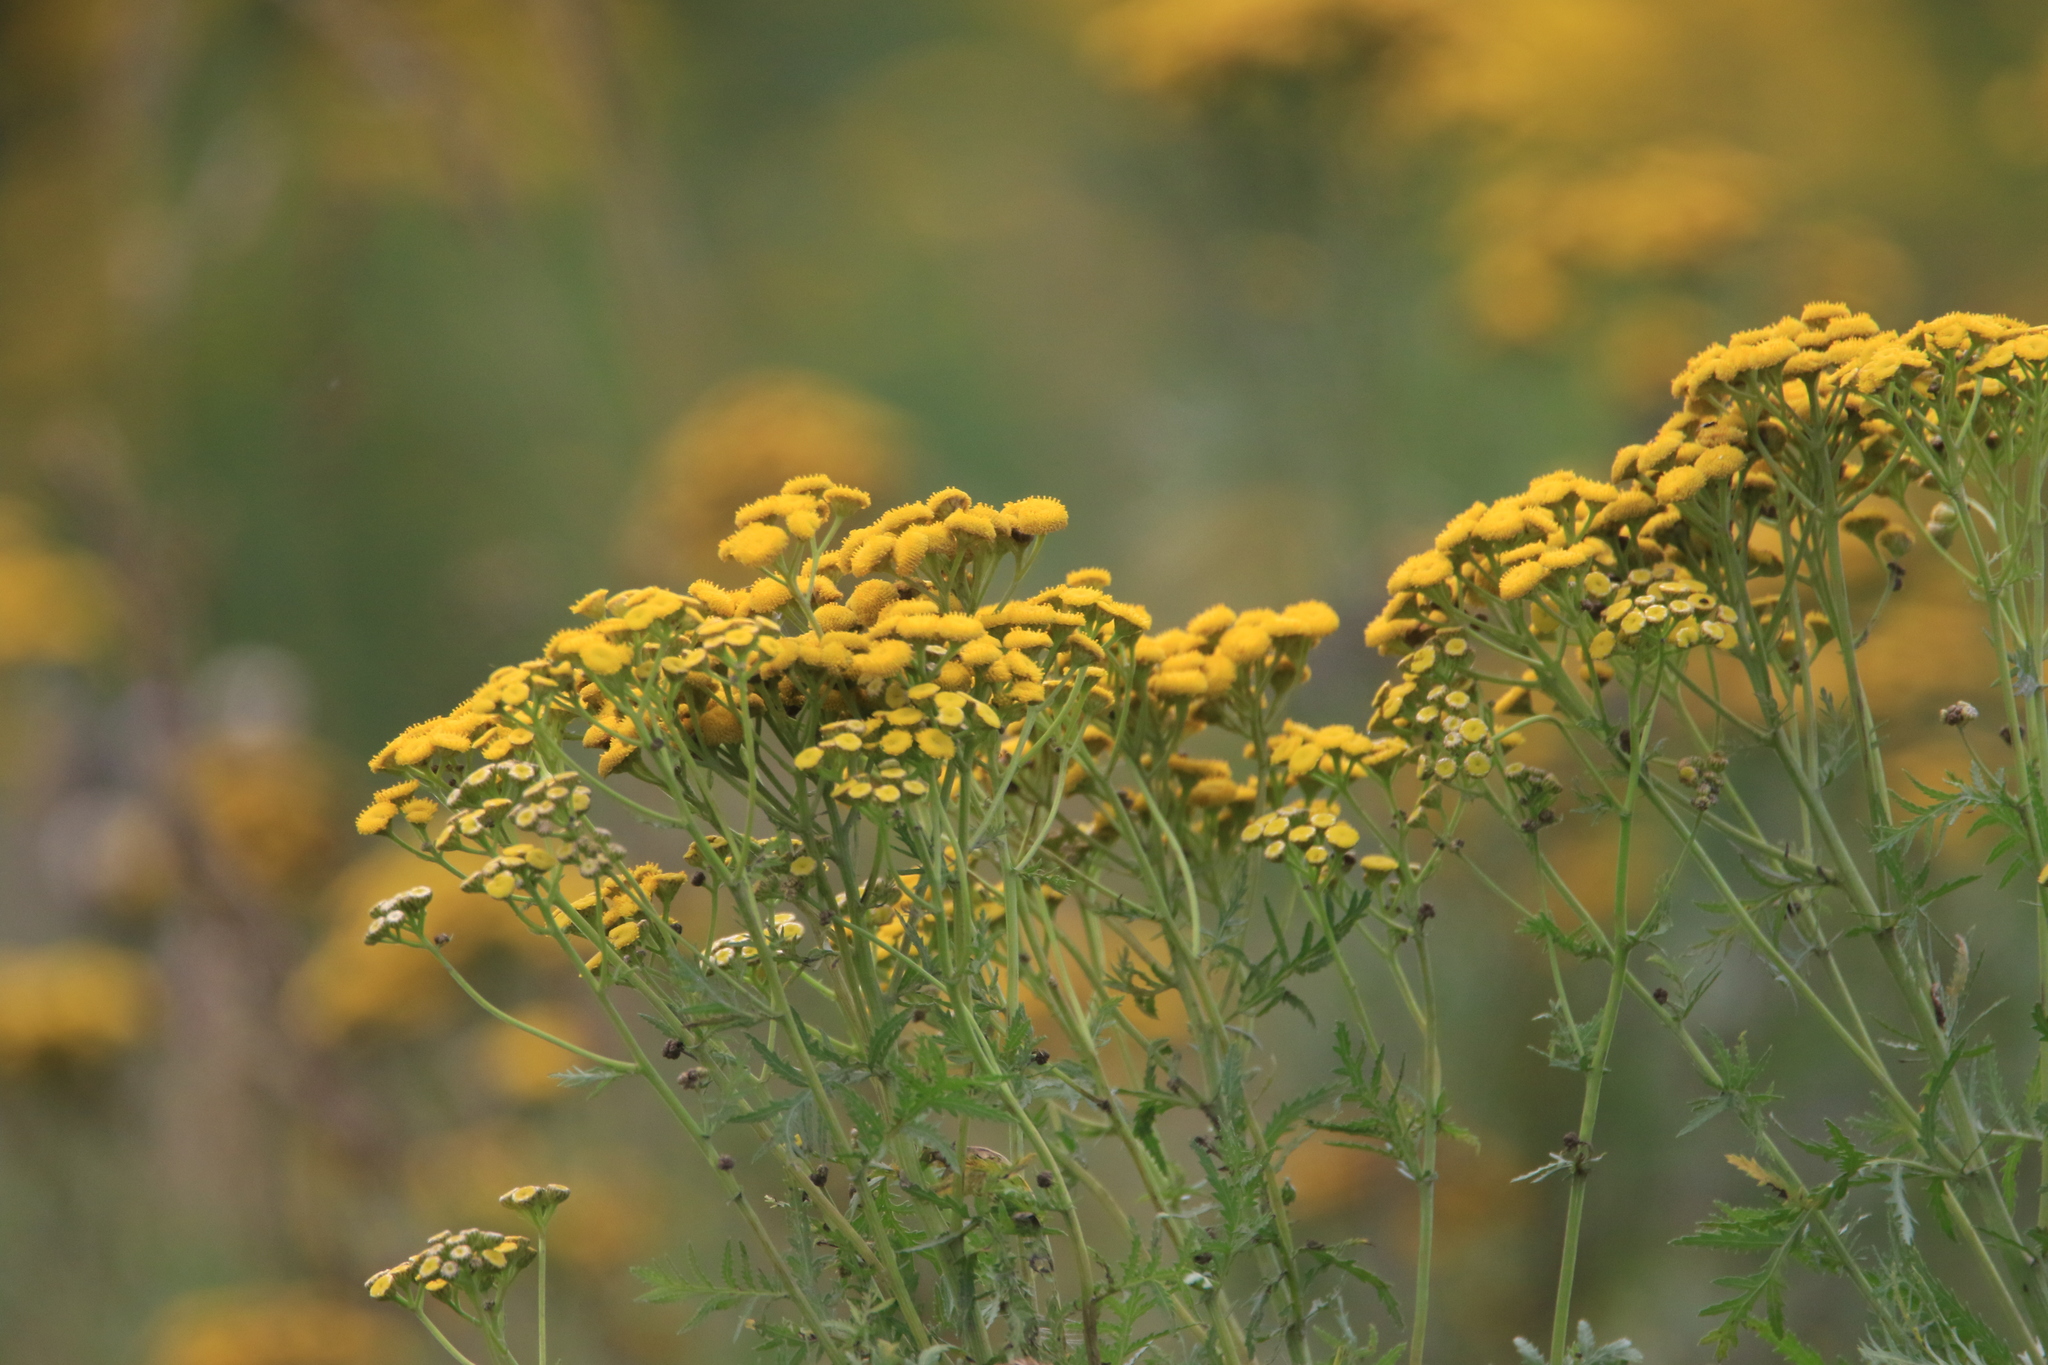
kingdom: Plantae
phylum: Tracheophyta
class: Magnoliopsida
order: Asterales
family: Asteraceae
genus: Tanacetum
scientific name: Tanacetum vulgare
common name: Common tansy
